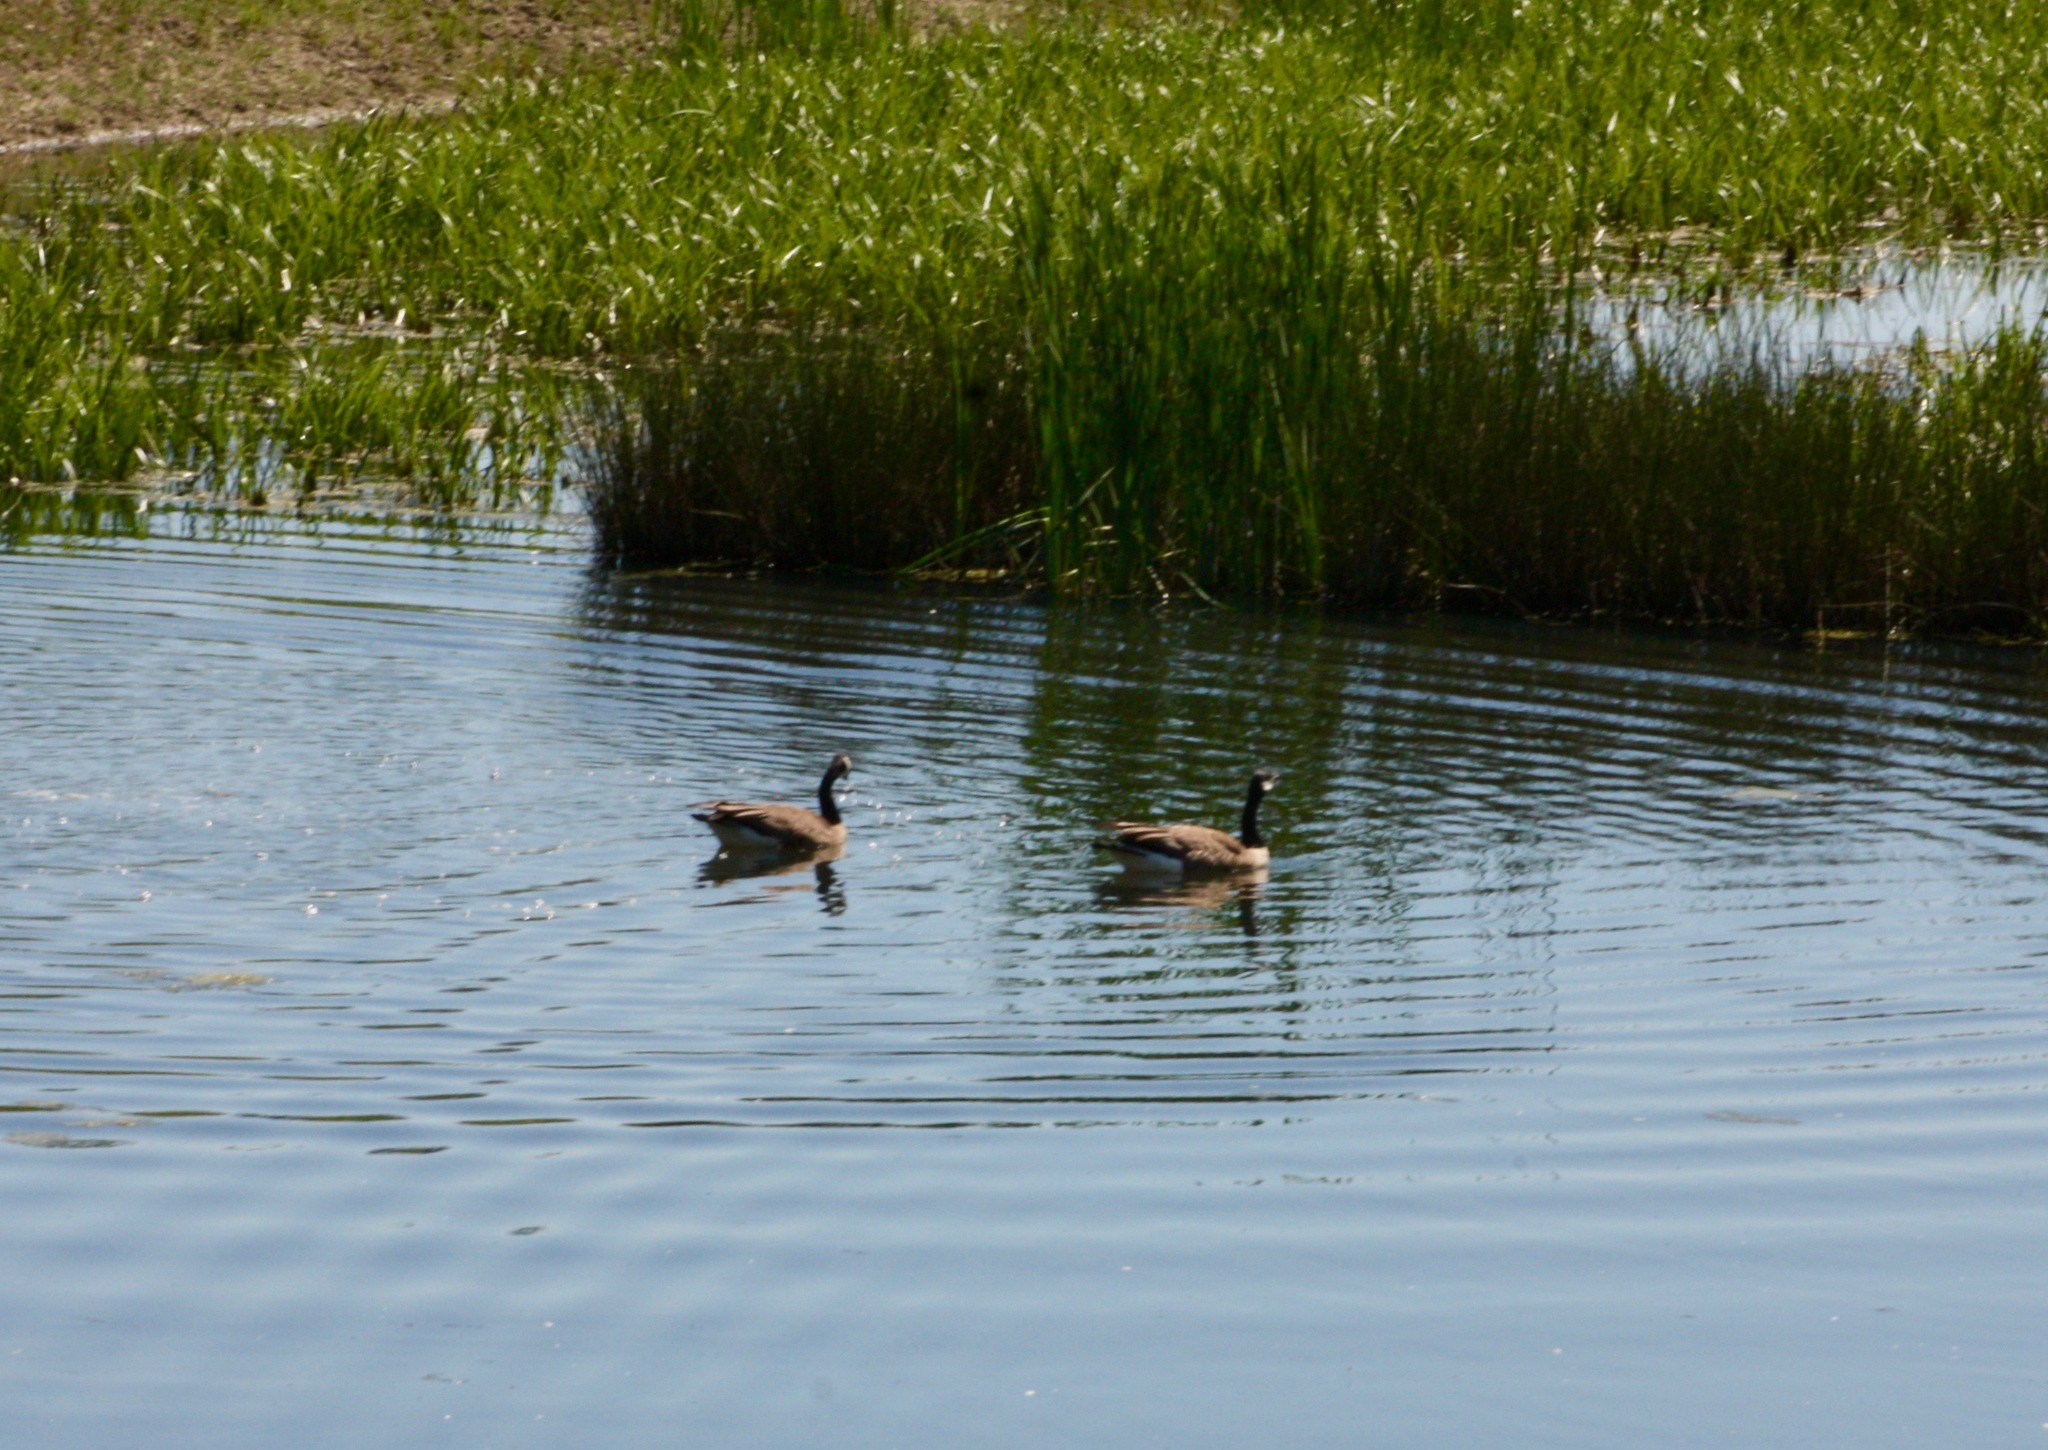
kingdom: Animalia
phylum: Chordata
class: Aves
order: Anseriformes
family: Anatidae
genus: Branta
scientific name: Branta canadensis
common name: Canada goose
